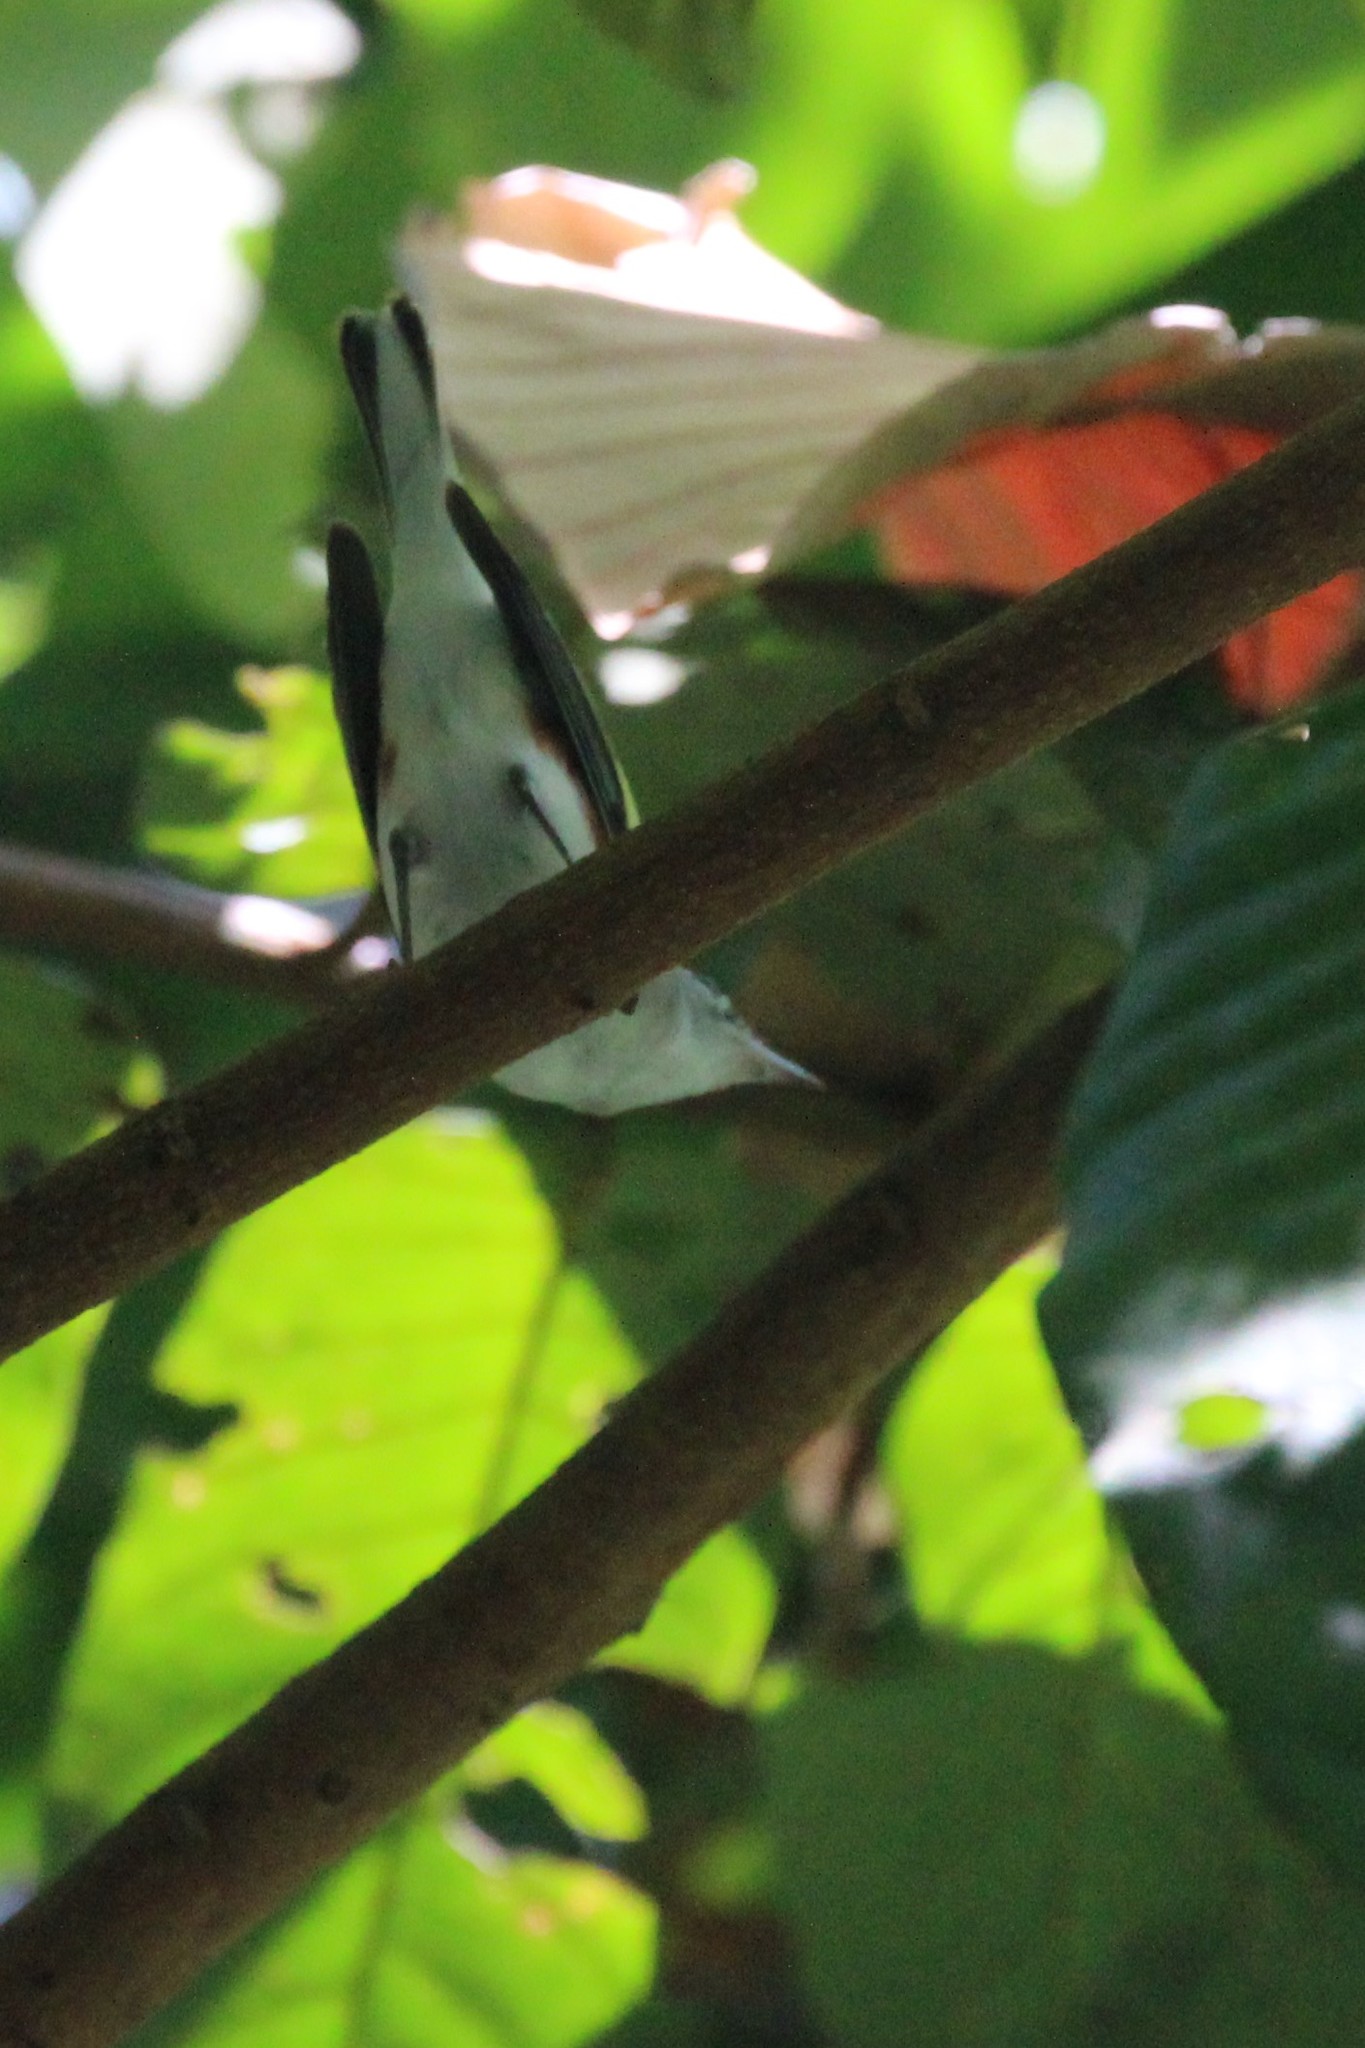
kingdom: Animalia
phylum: Chordata
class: Aves
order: Passeriformes
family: Parulidae
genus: Setophaga
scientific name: Setophaga pensylvanica
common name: Chestnut-sided warbler
